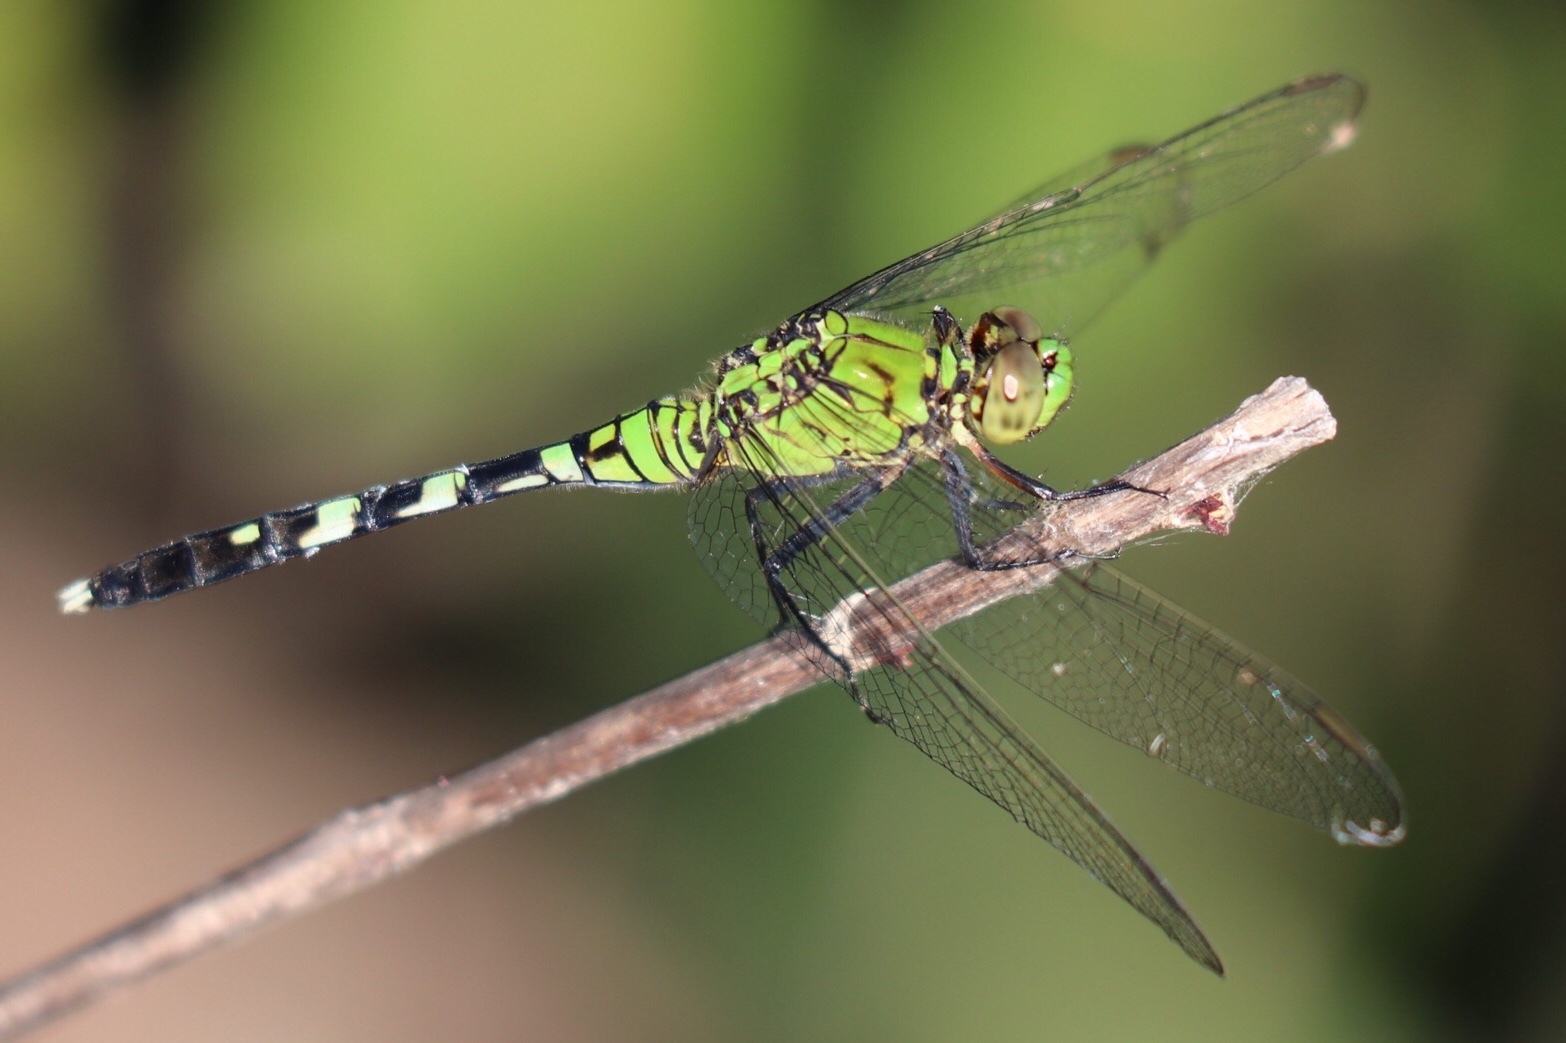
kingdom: Animalia
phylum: Arthropoda
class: Insecta
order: Odonata
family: Libellulidae
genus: Erythemis
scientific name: Erythemis simplicicollis
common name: Eastern pondhawk
